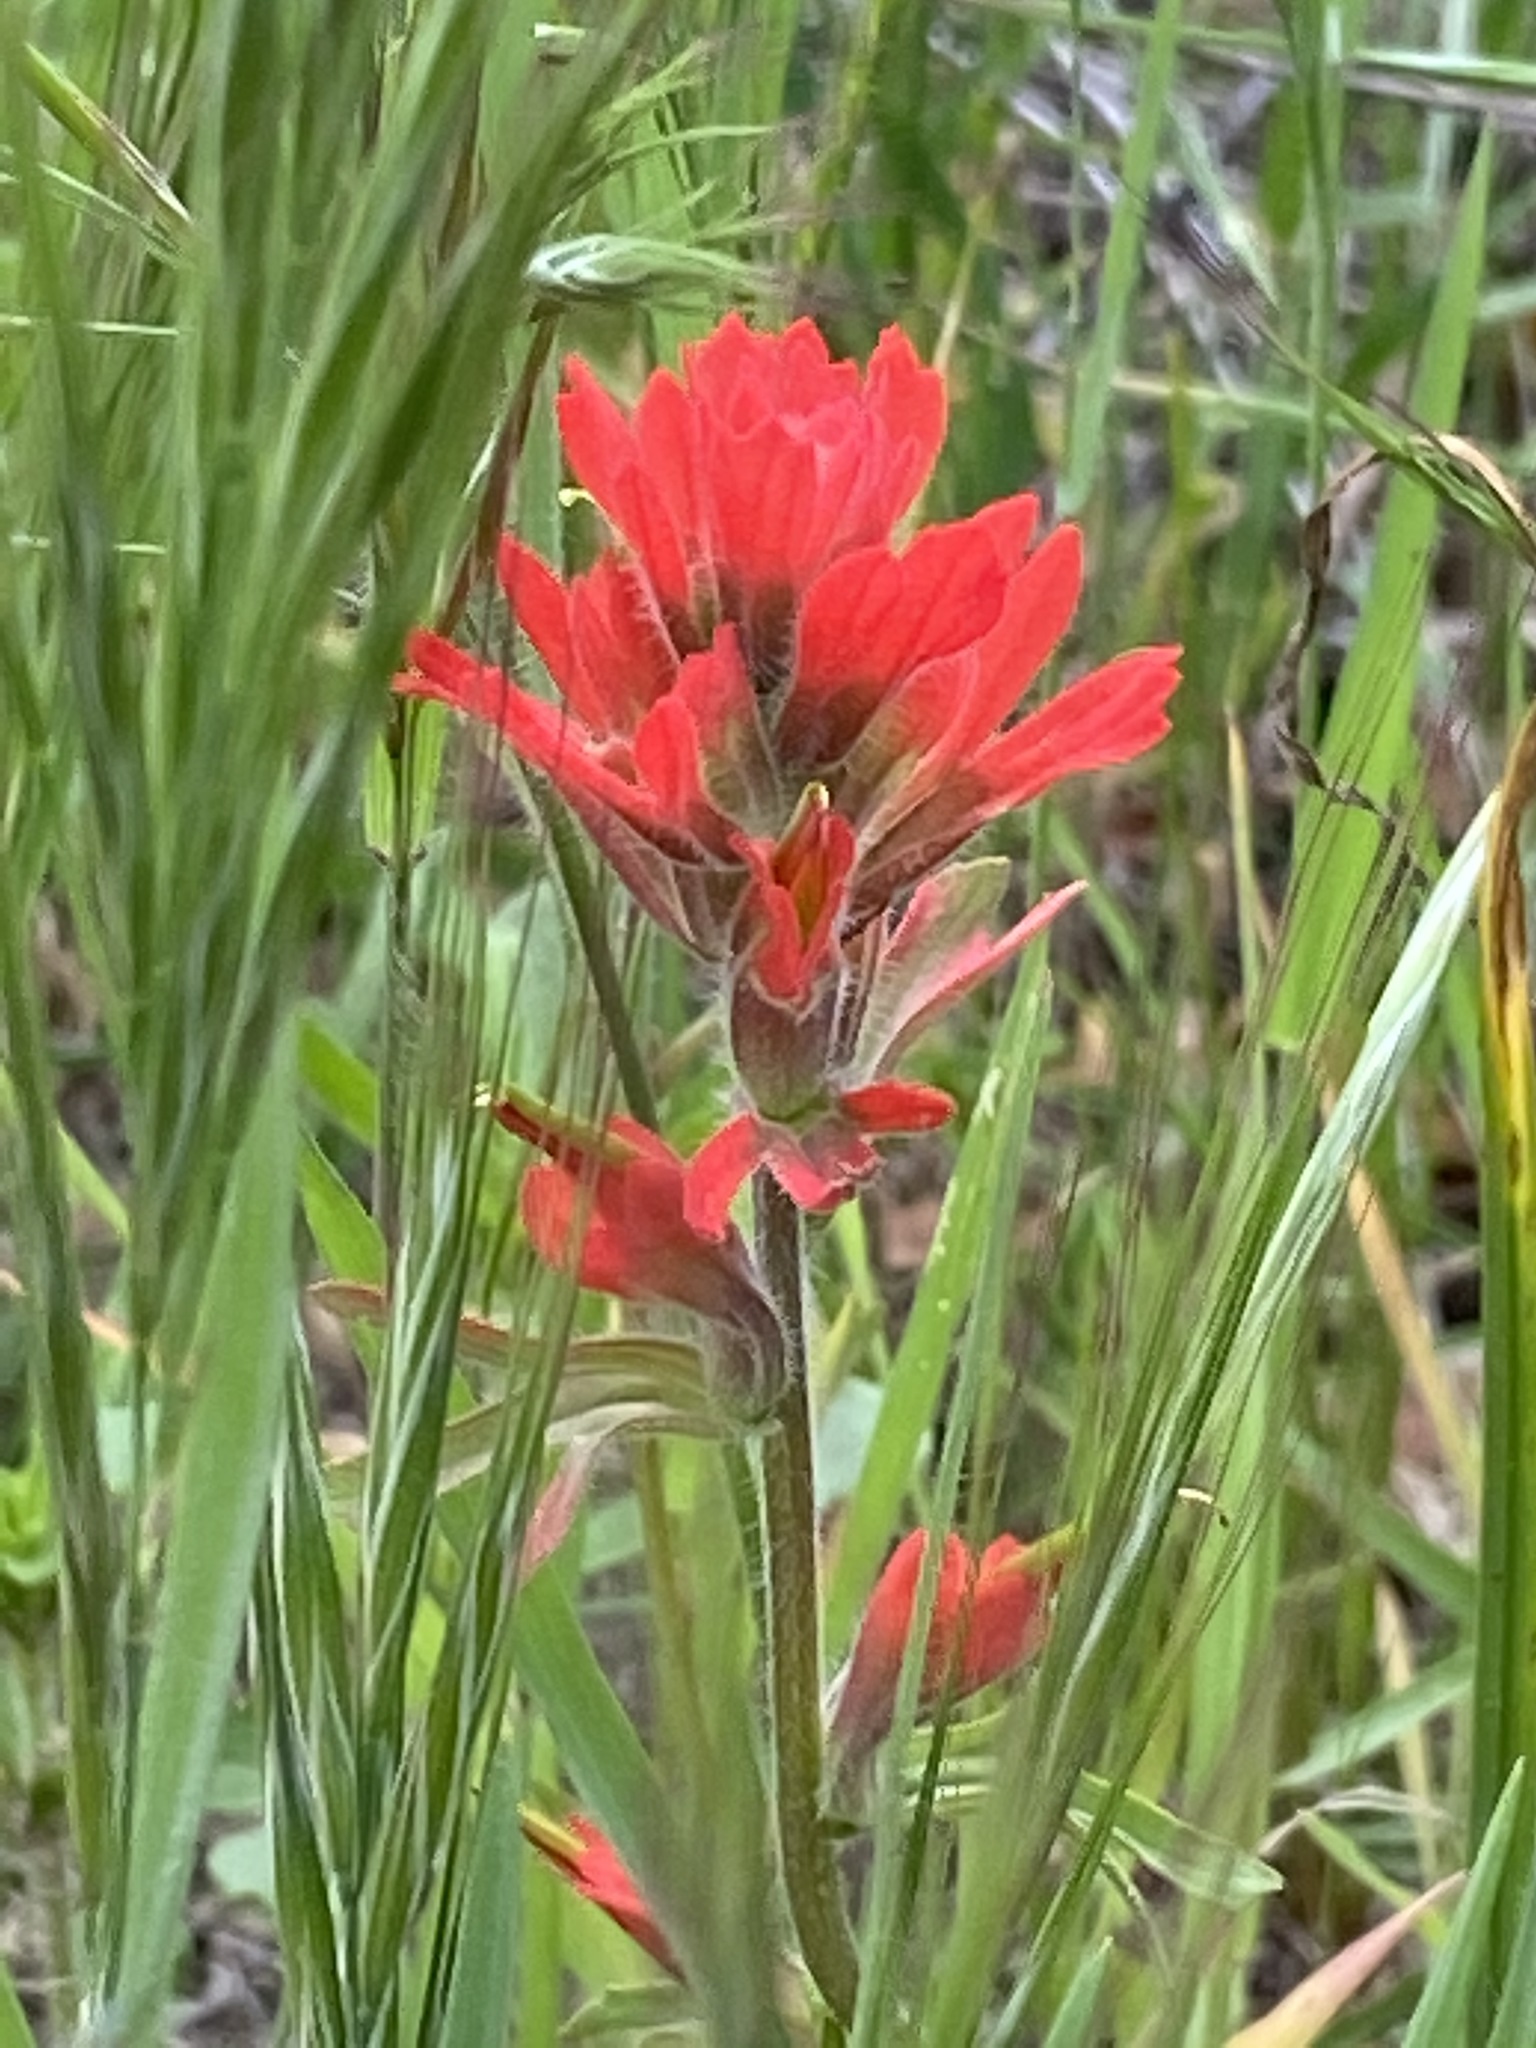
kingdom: Plantae
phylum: Tracheophyta
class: Magnoliopsida
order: Lamiales
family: Orobanchaceae
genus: Castilleja
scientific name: Castilleja affinis
